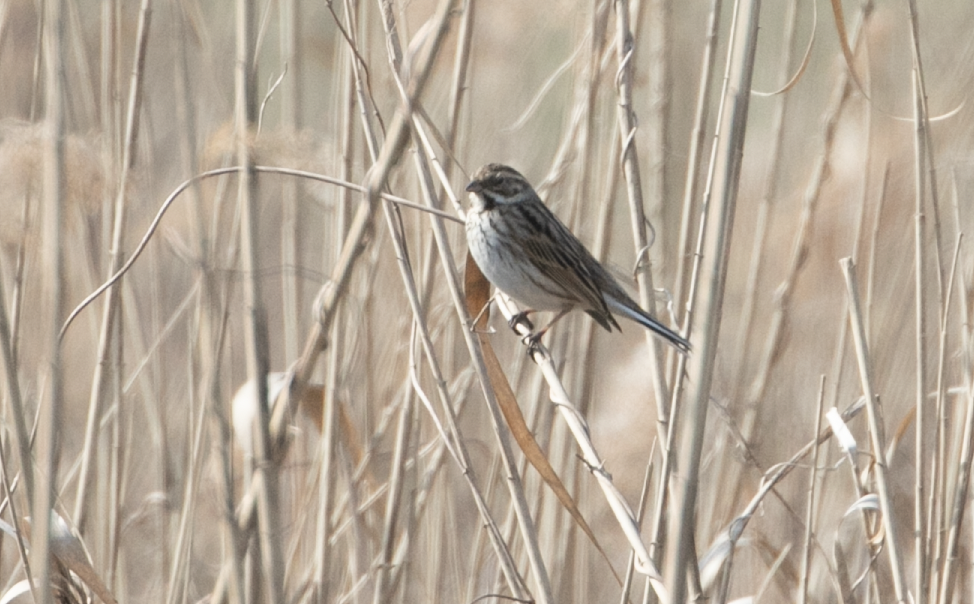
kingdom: Animalia
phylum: Chordata
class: Aves
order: Passeriformes
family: Emberizidae
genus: Emberiza
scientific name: Emberiza schoeniclus
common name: Reed bunting
